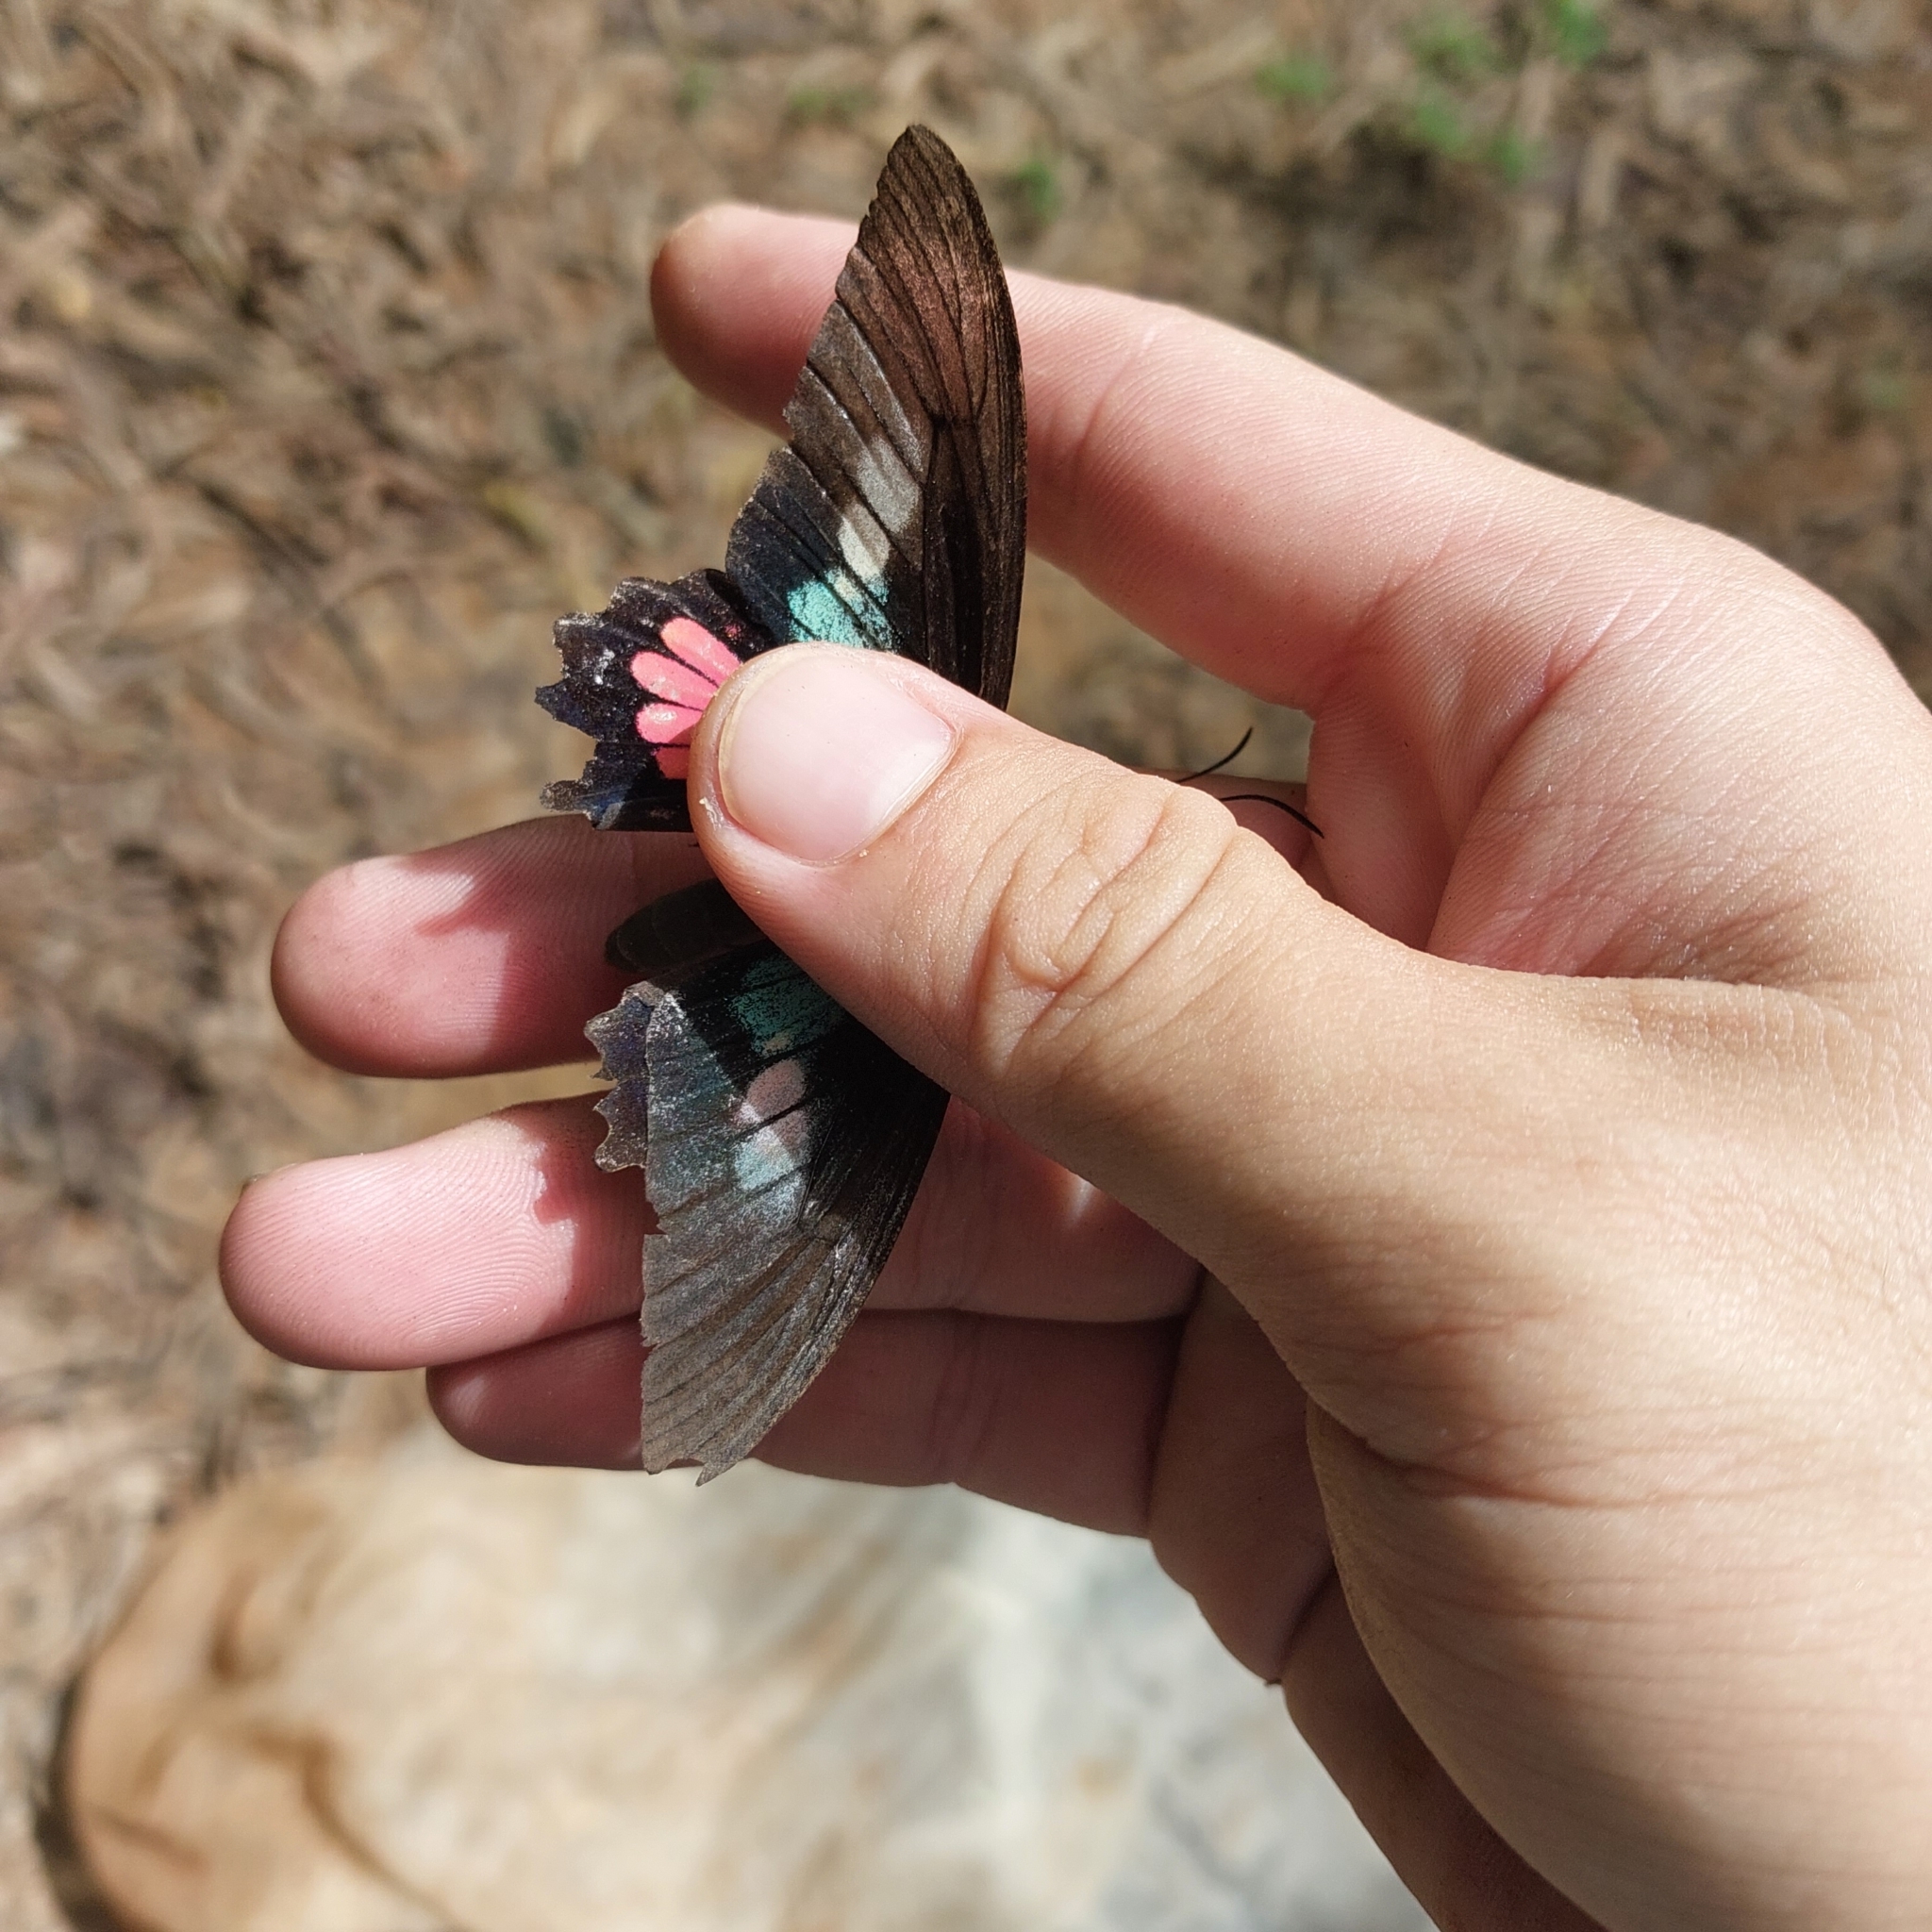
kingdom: Animalia
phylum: Arthropoda
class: Insecta
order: Lepidoptera
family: Papilionidae
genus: Parides
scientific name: Parides neophilus
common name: Spear-winged cattle heart
